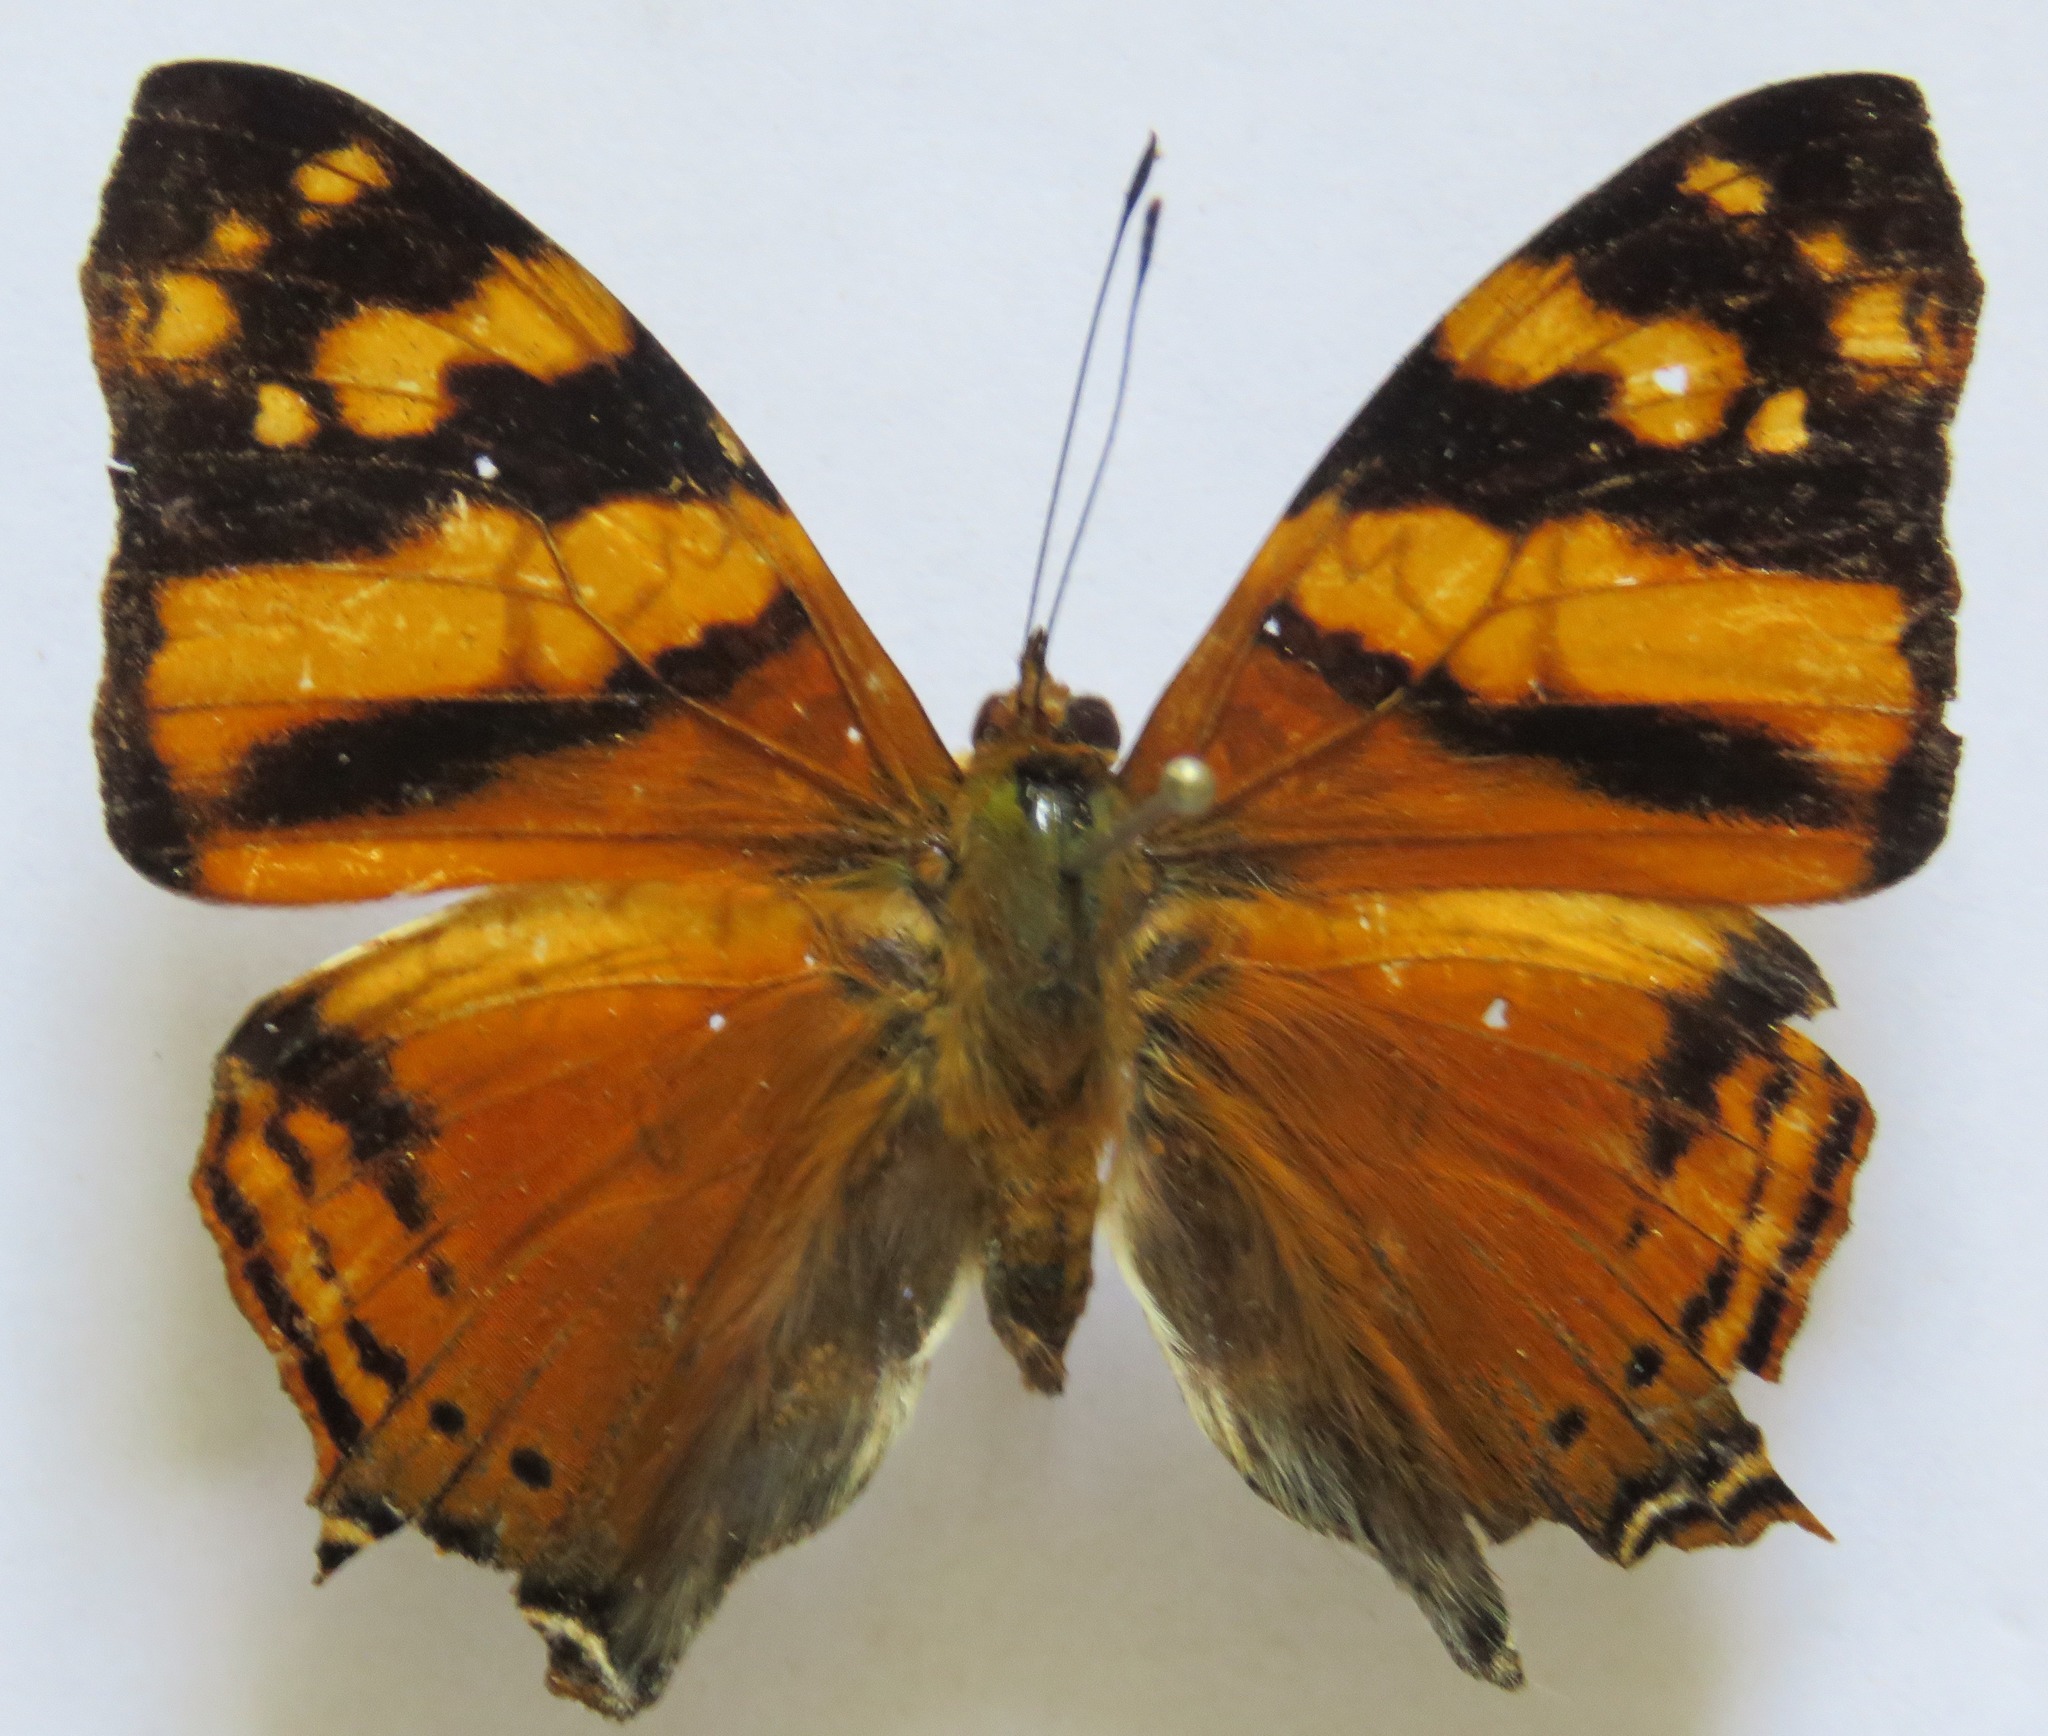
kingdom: Animalia
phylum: Arthropoda
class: Insecta
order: Lepidoptera
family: Nymphalidae
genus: Hypanartia
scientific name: Hypanartia lethe
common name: Orange mapwing
